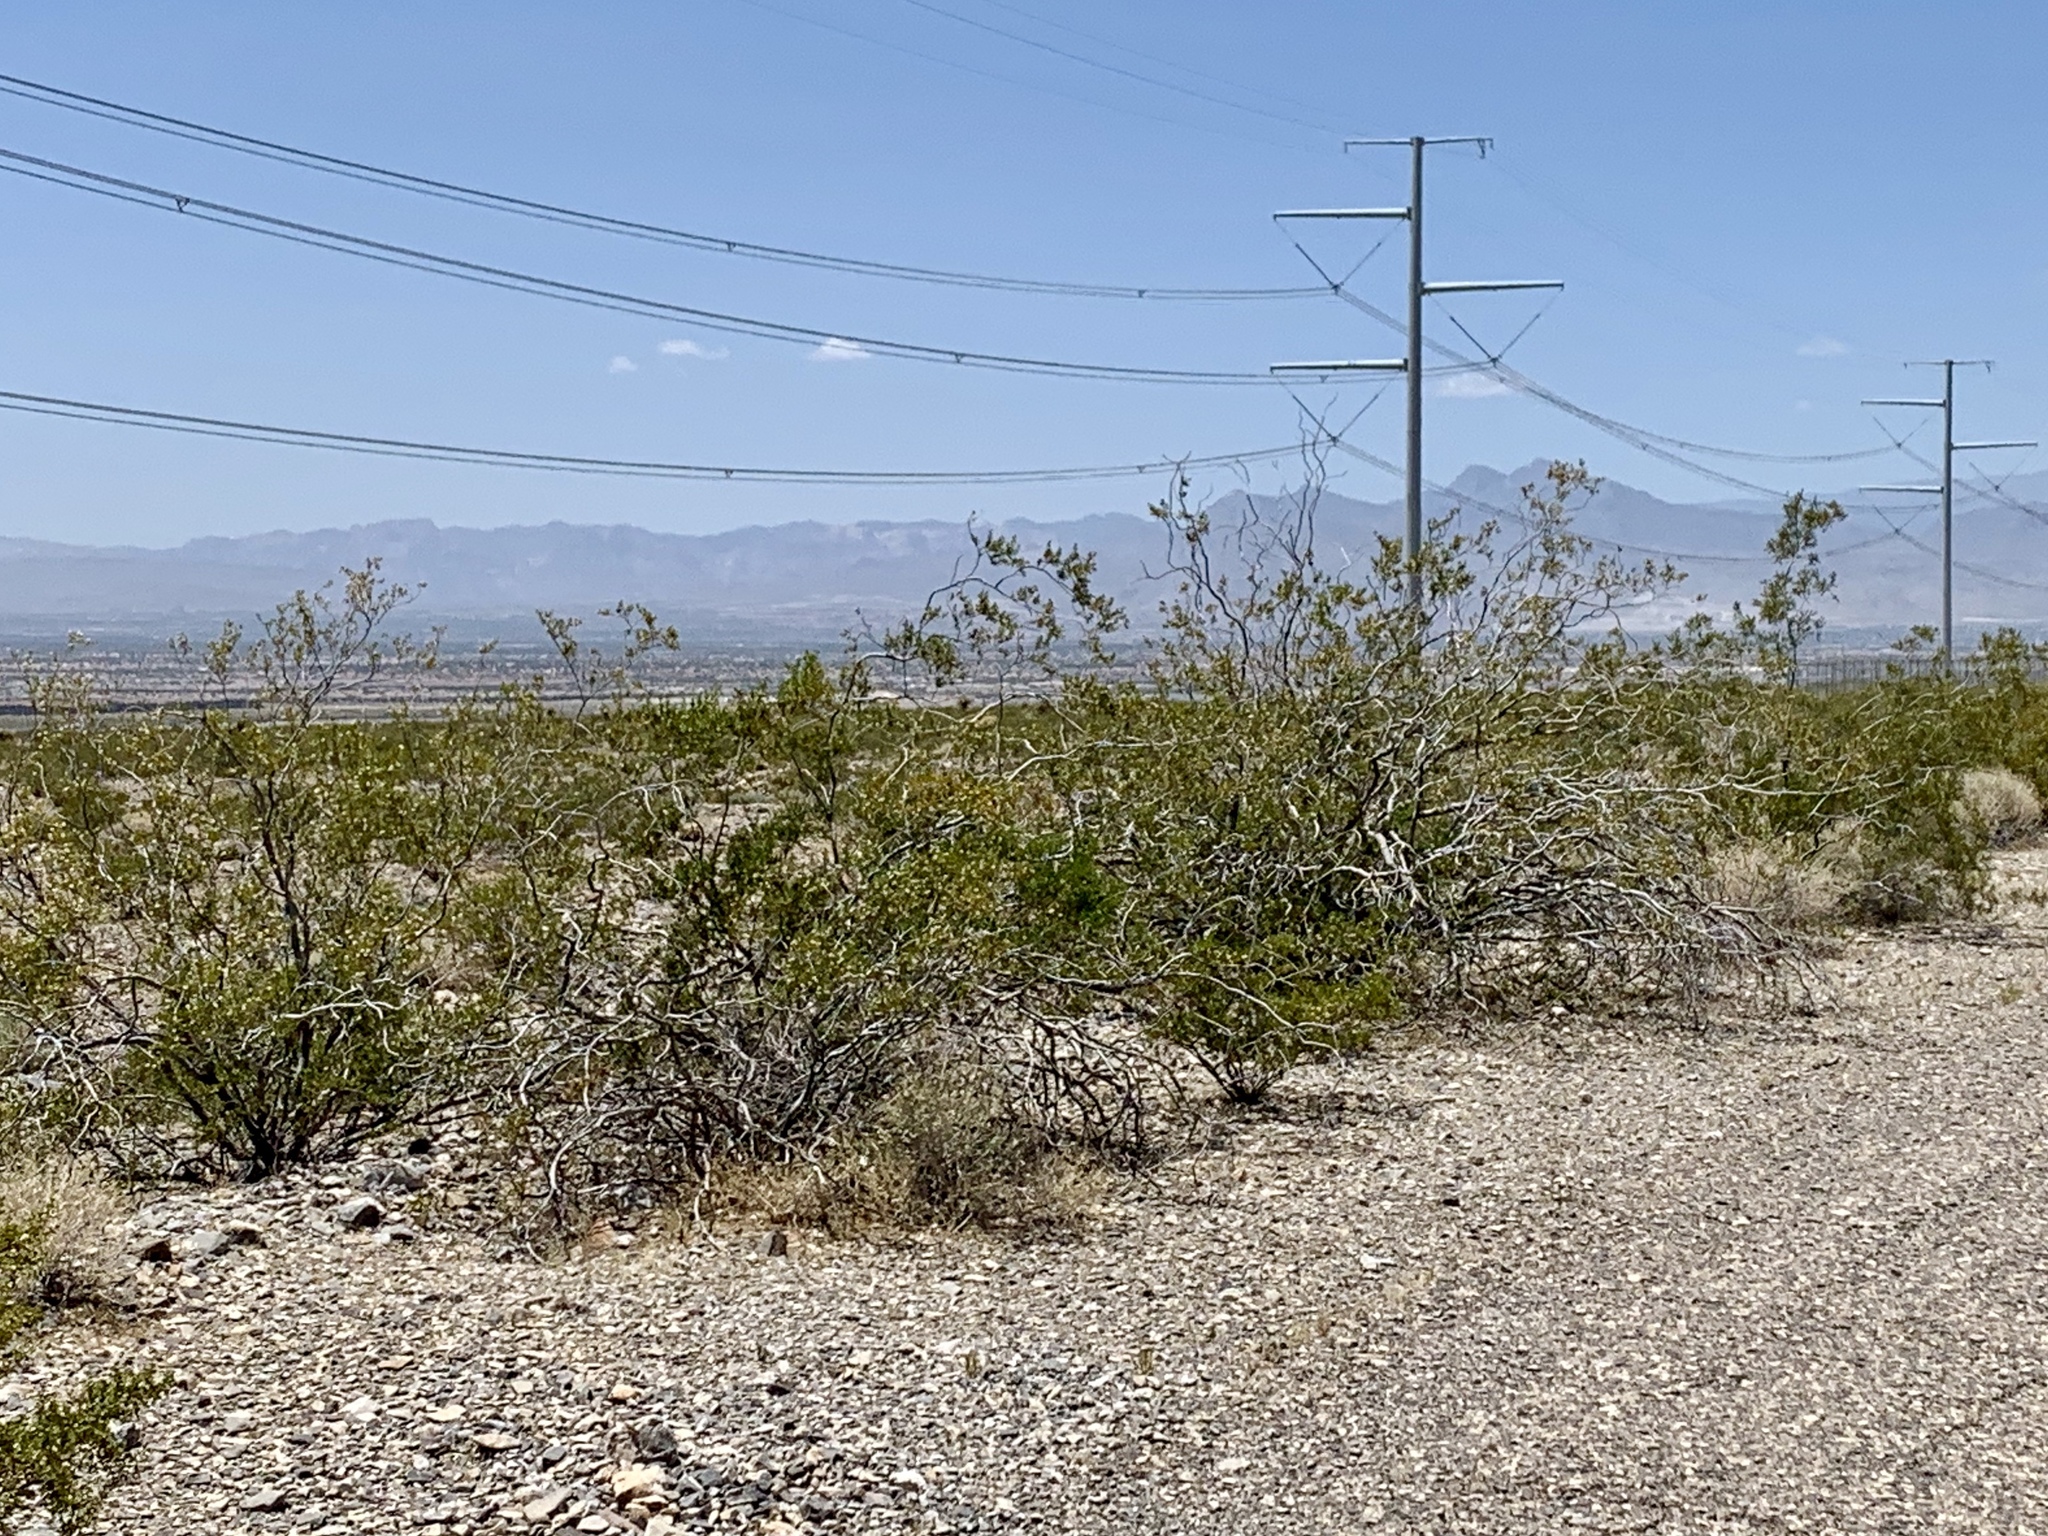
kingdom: Plantae
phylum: Tracheophyta
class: Magnoliopsida
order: Zygophyllales
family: Zygophyllaceae
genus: Larrea
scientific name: Larrea tridentata
